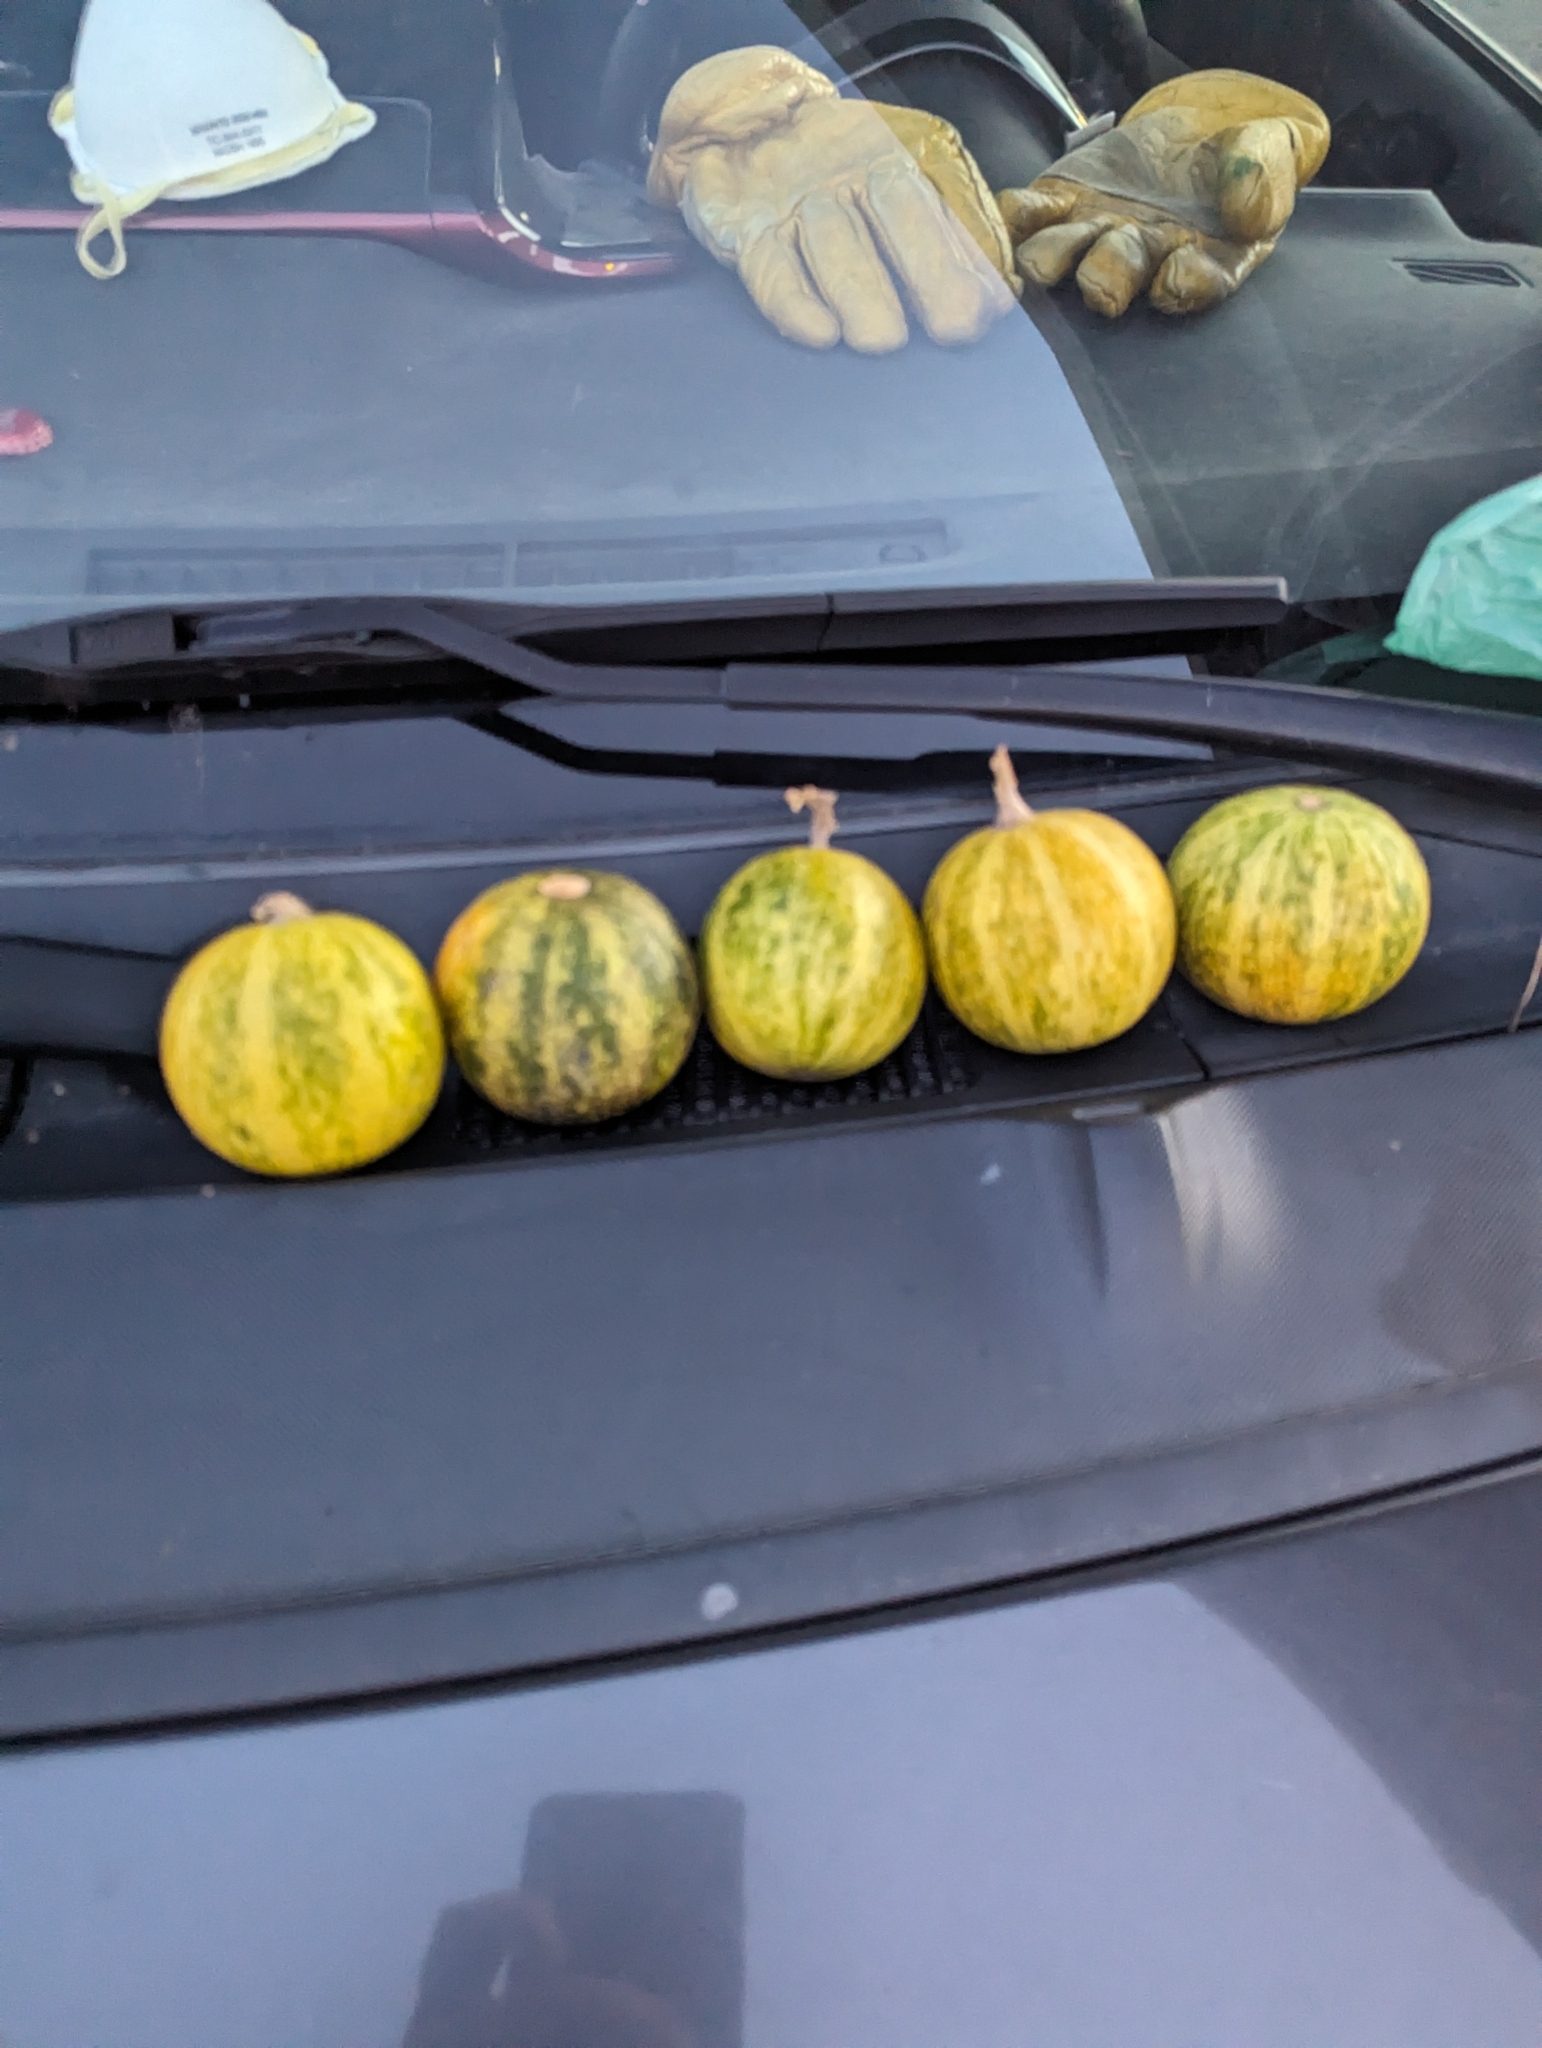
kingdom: Plantae
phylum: Tracheophyta
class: Magnoliopsida
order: Cucurbitales
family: Cucurbitaceae
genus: Cucurbita
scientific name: Cucurbita foetidissima
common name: Buffalo gourd
